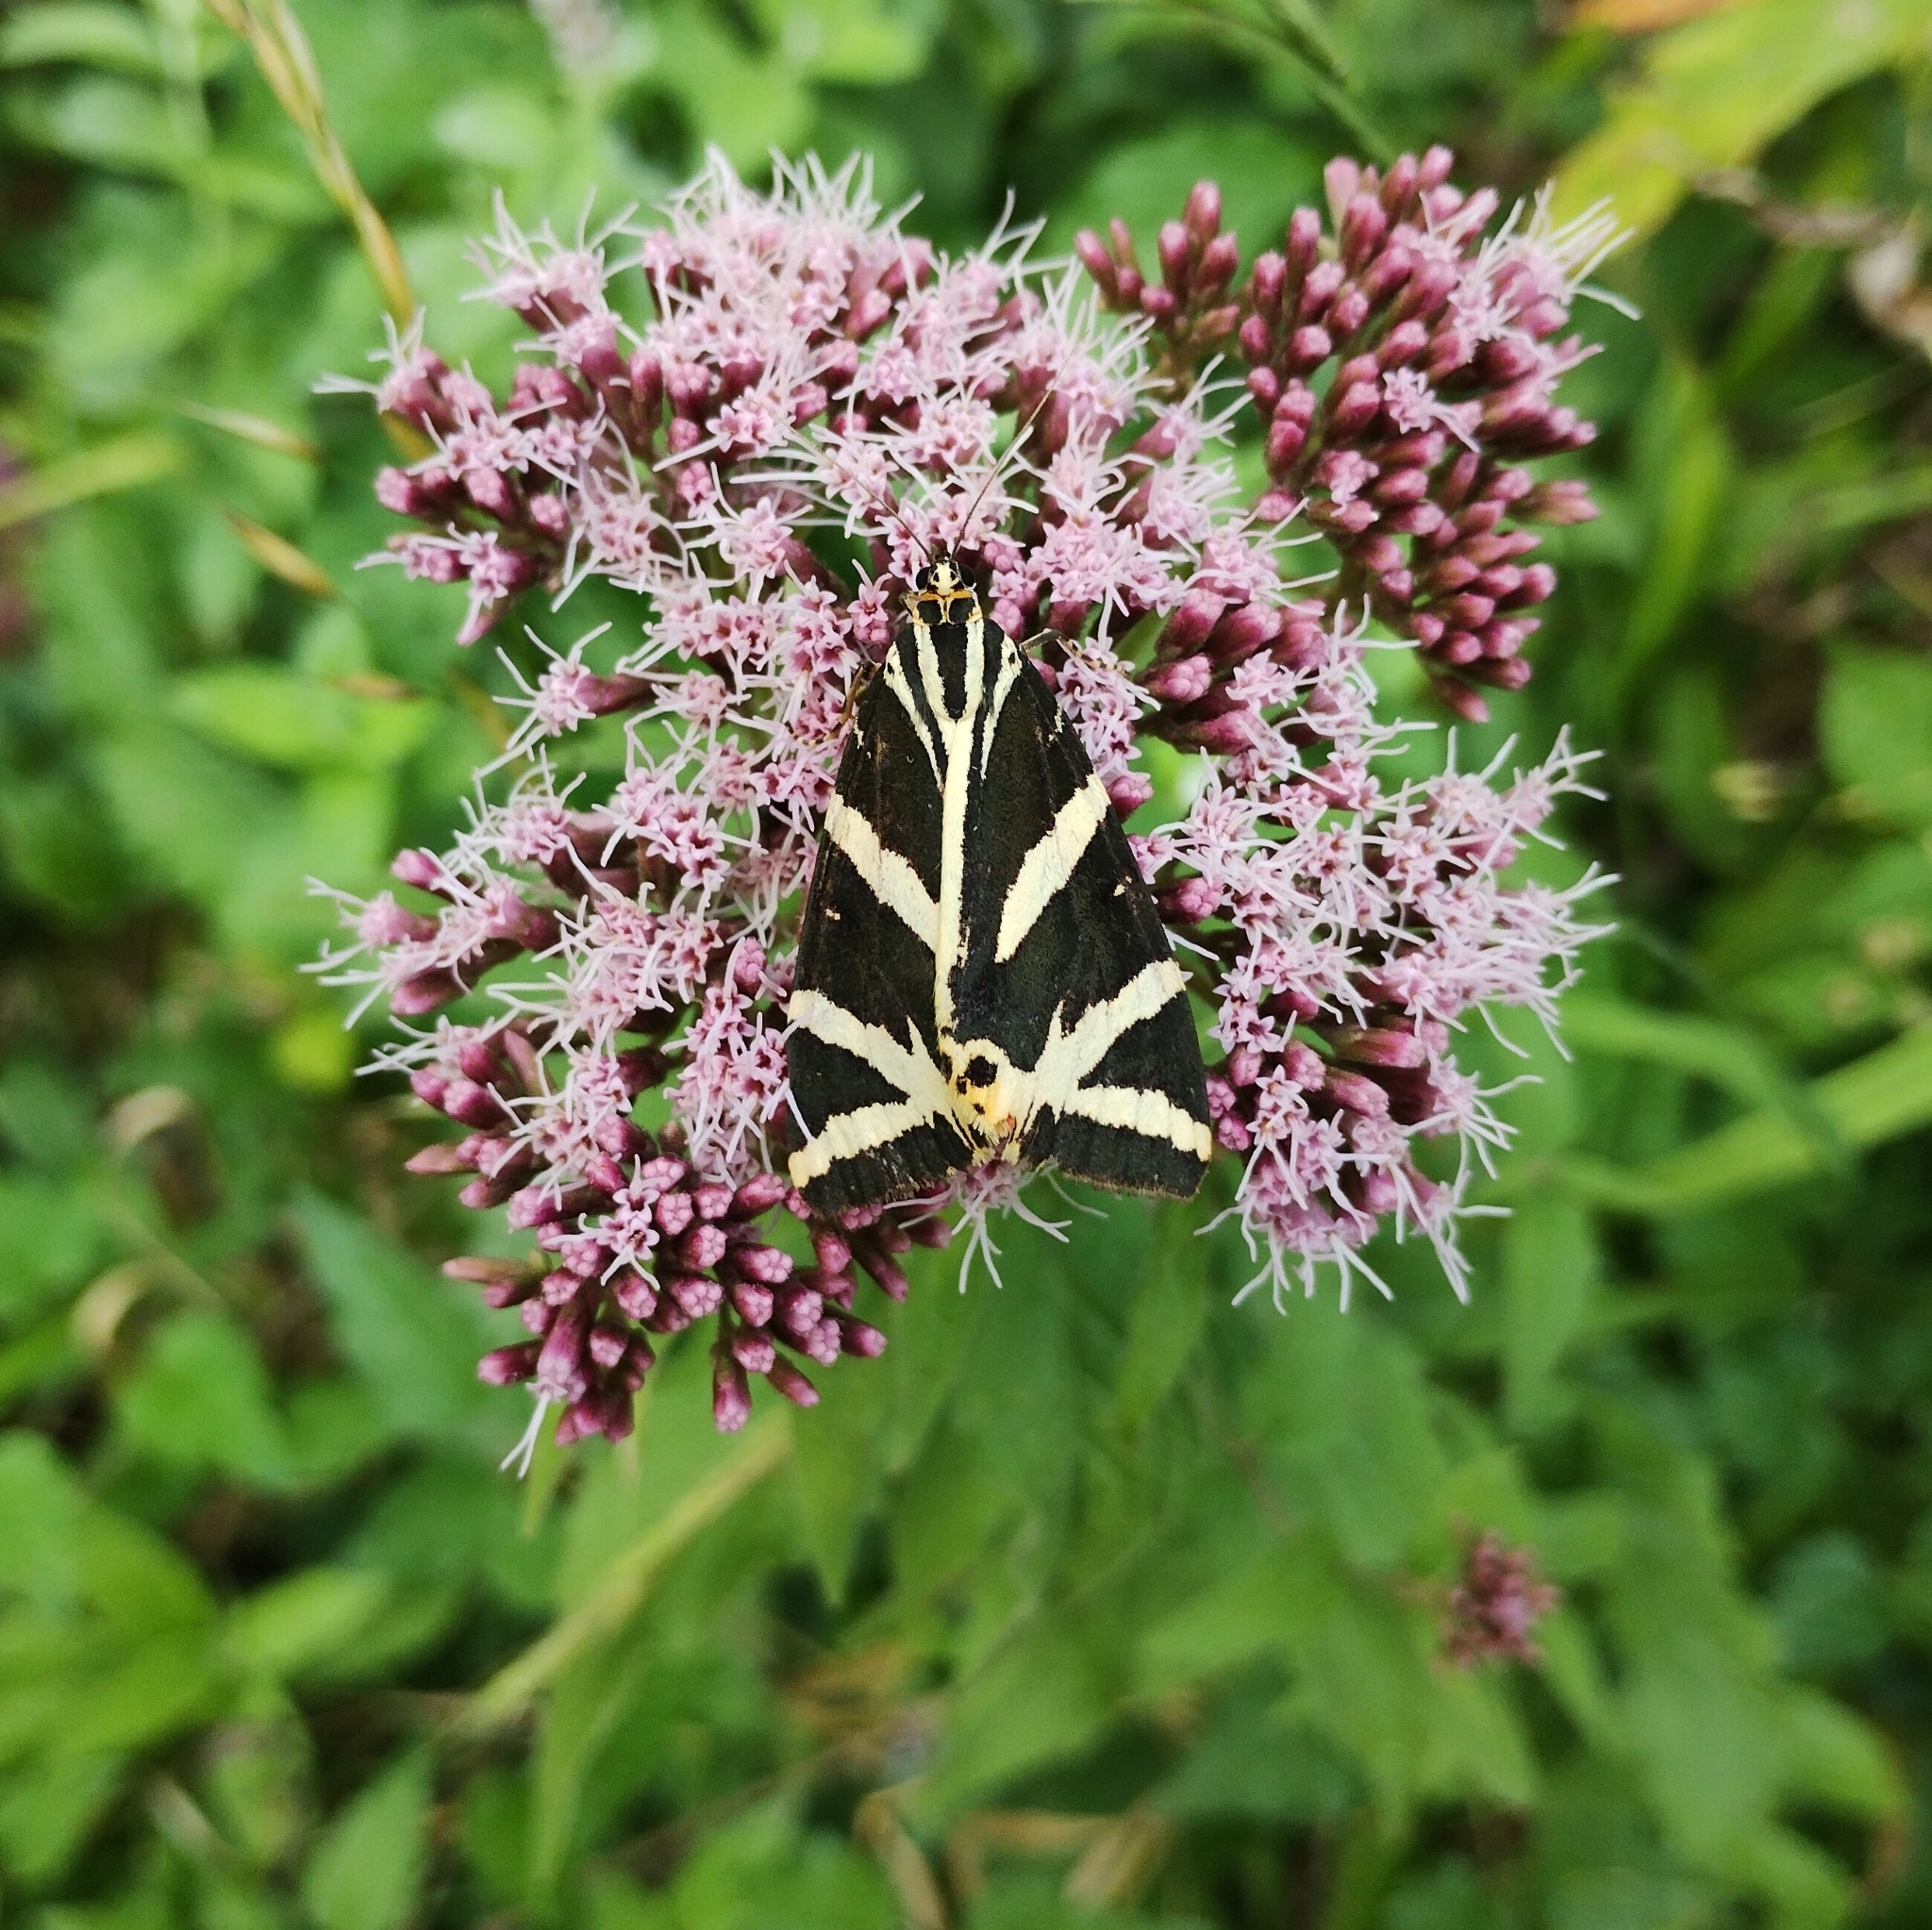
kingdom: Animalia
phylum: Arthropoda
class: Insecta
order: Lepidoptera
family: Erebidae
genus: Euplagia
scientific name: Euplagia quadripunctaria
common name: Jersey tiger
